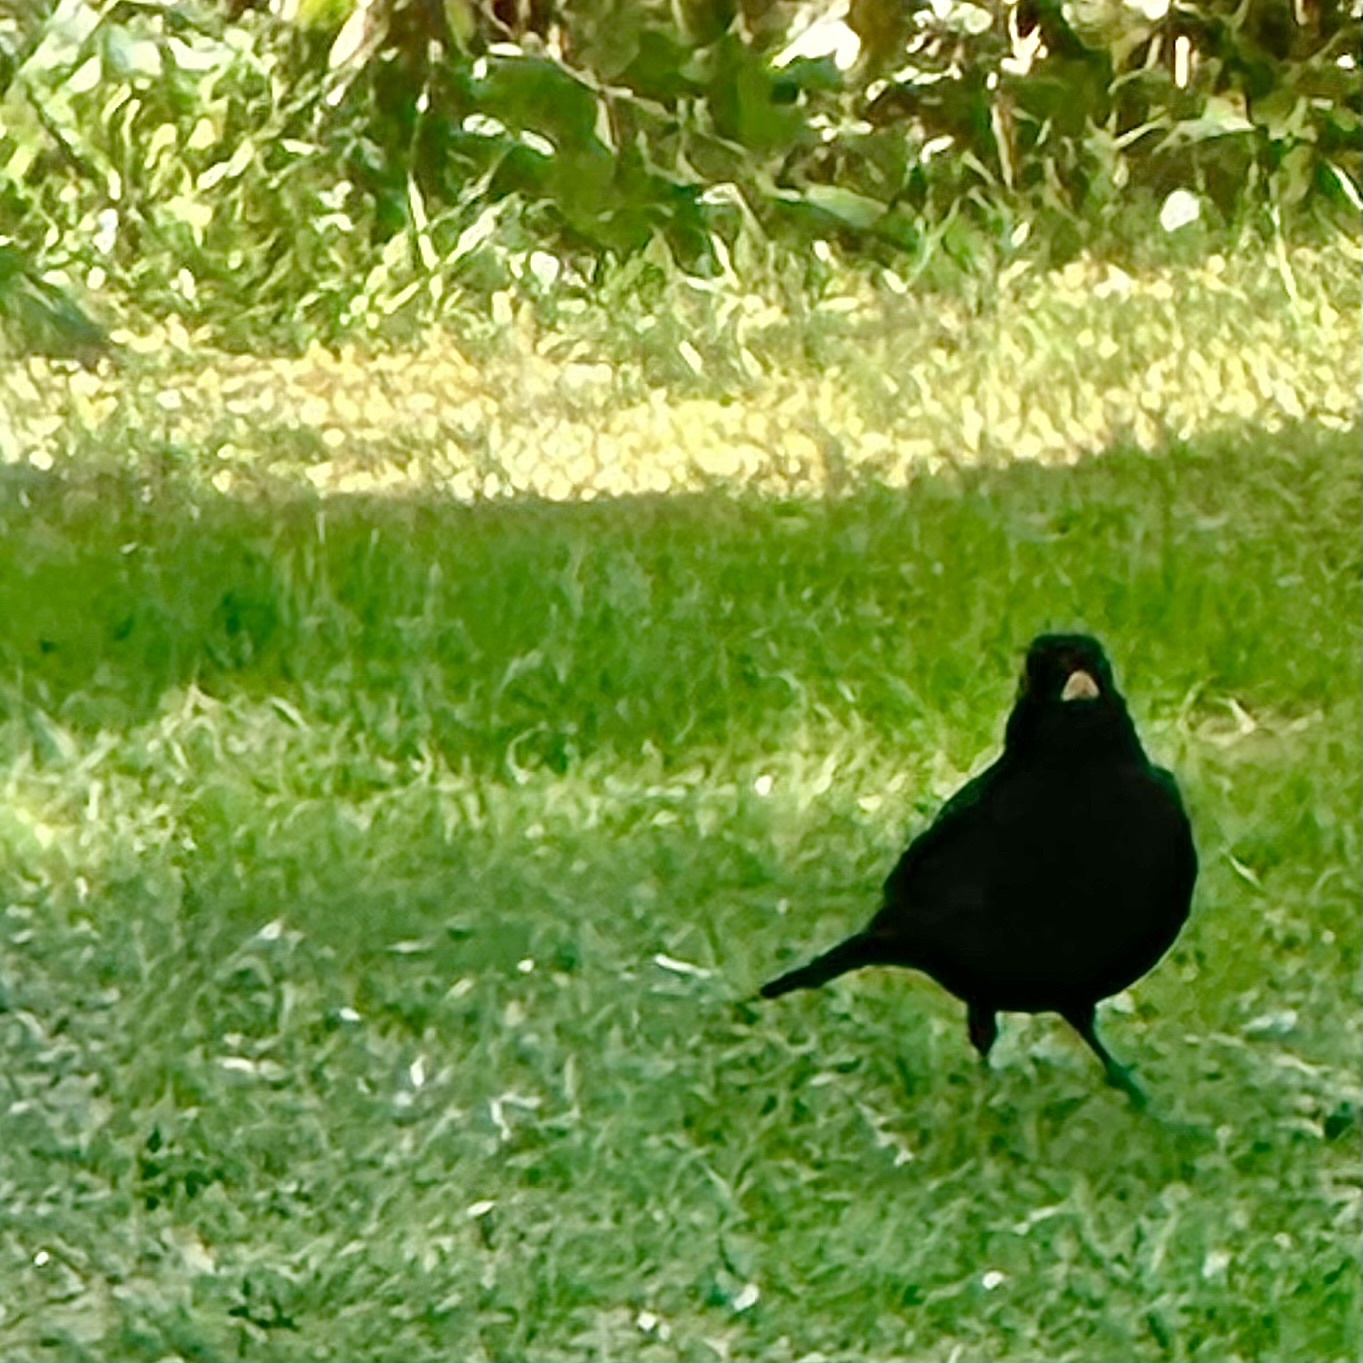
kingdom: Animalia
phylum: Chordata
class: Aves
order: Passeriformes
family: Turdidae
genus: Turdus
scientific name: Turdus merula
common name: Common blackbird
